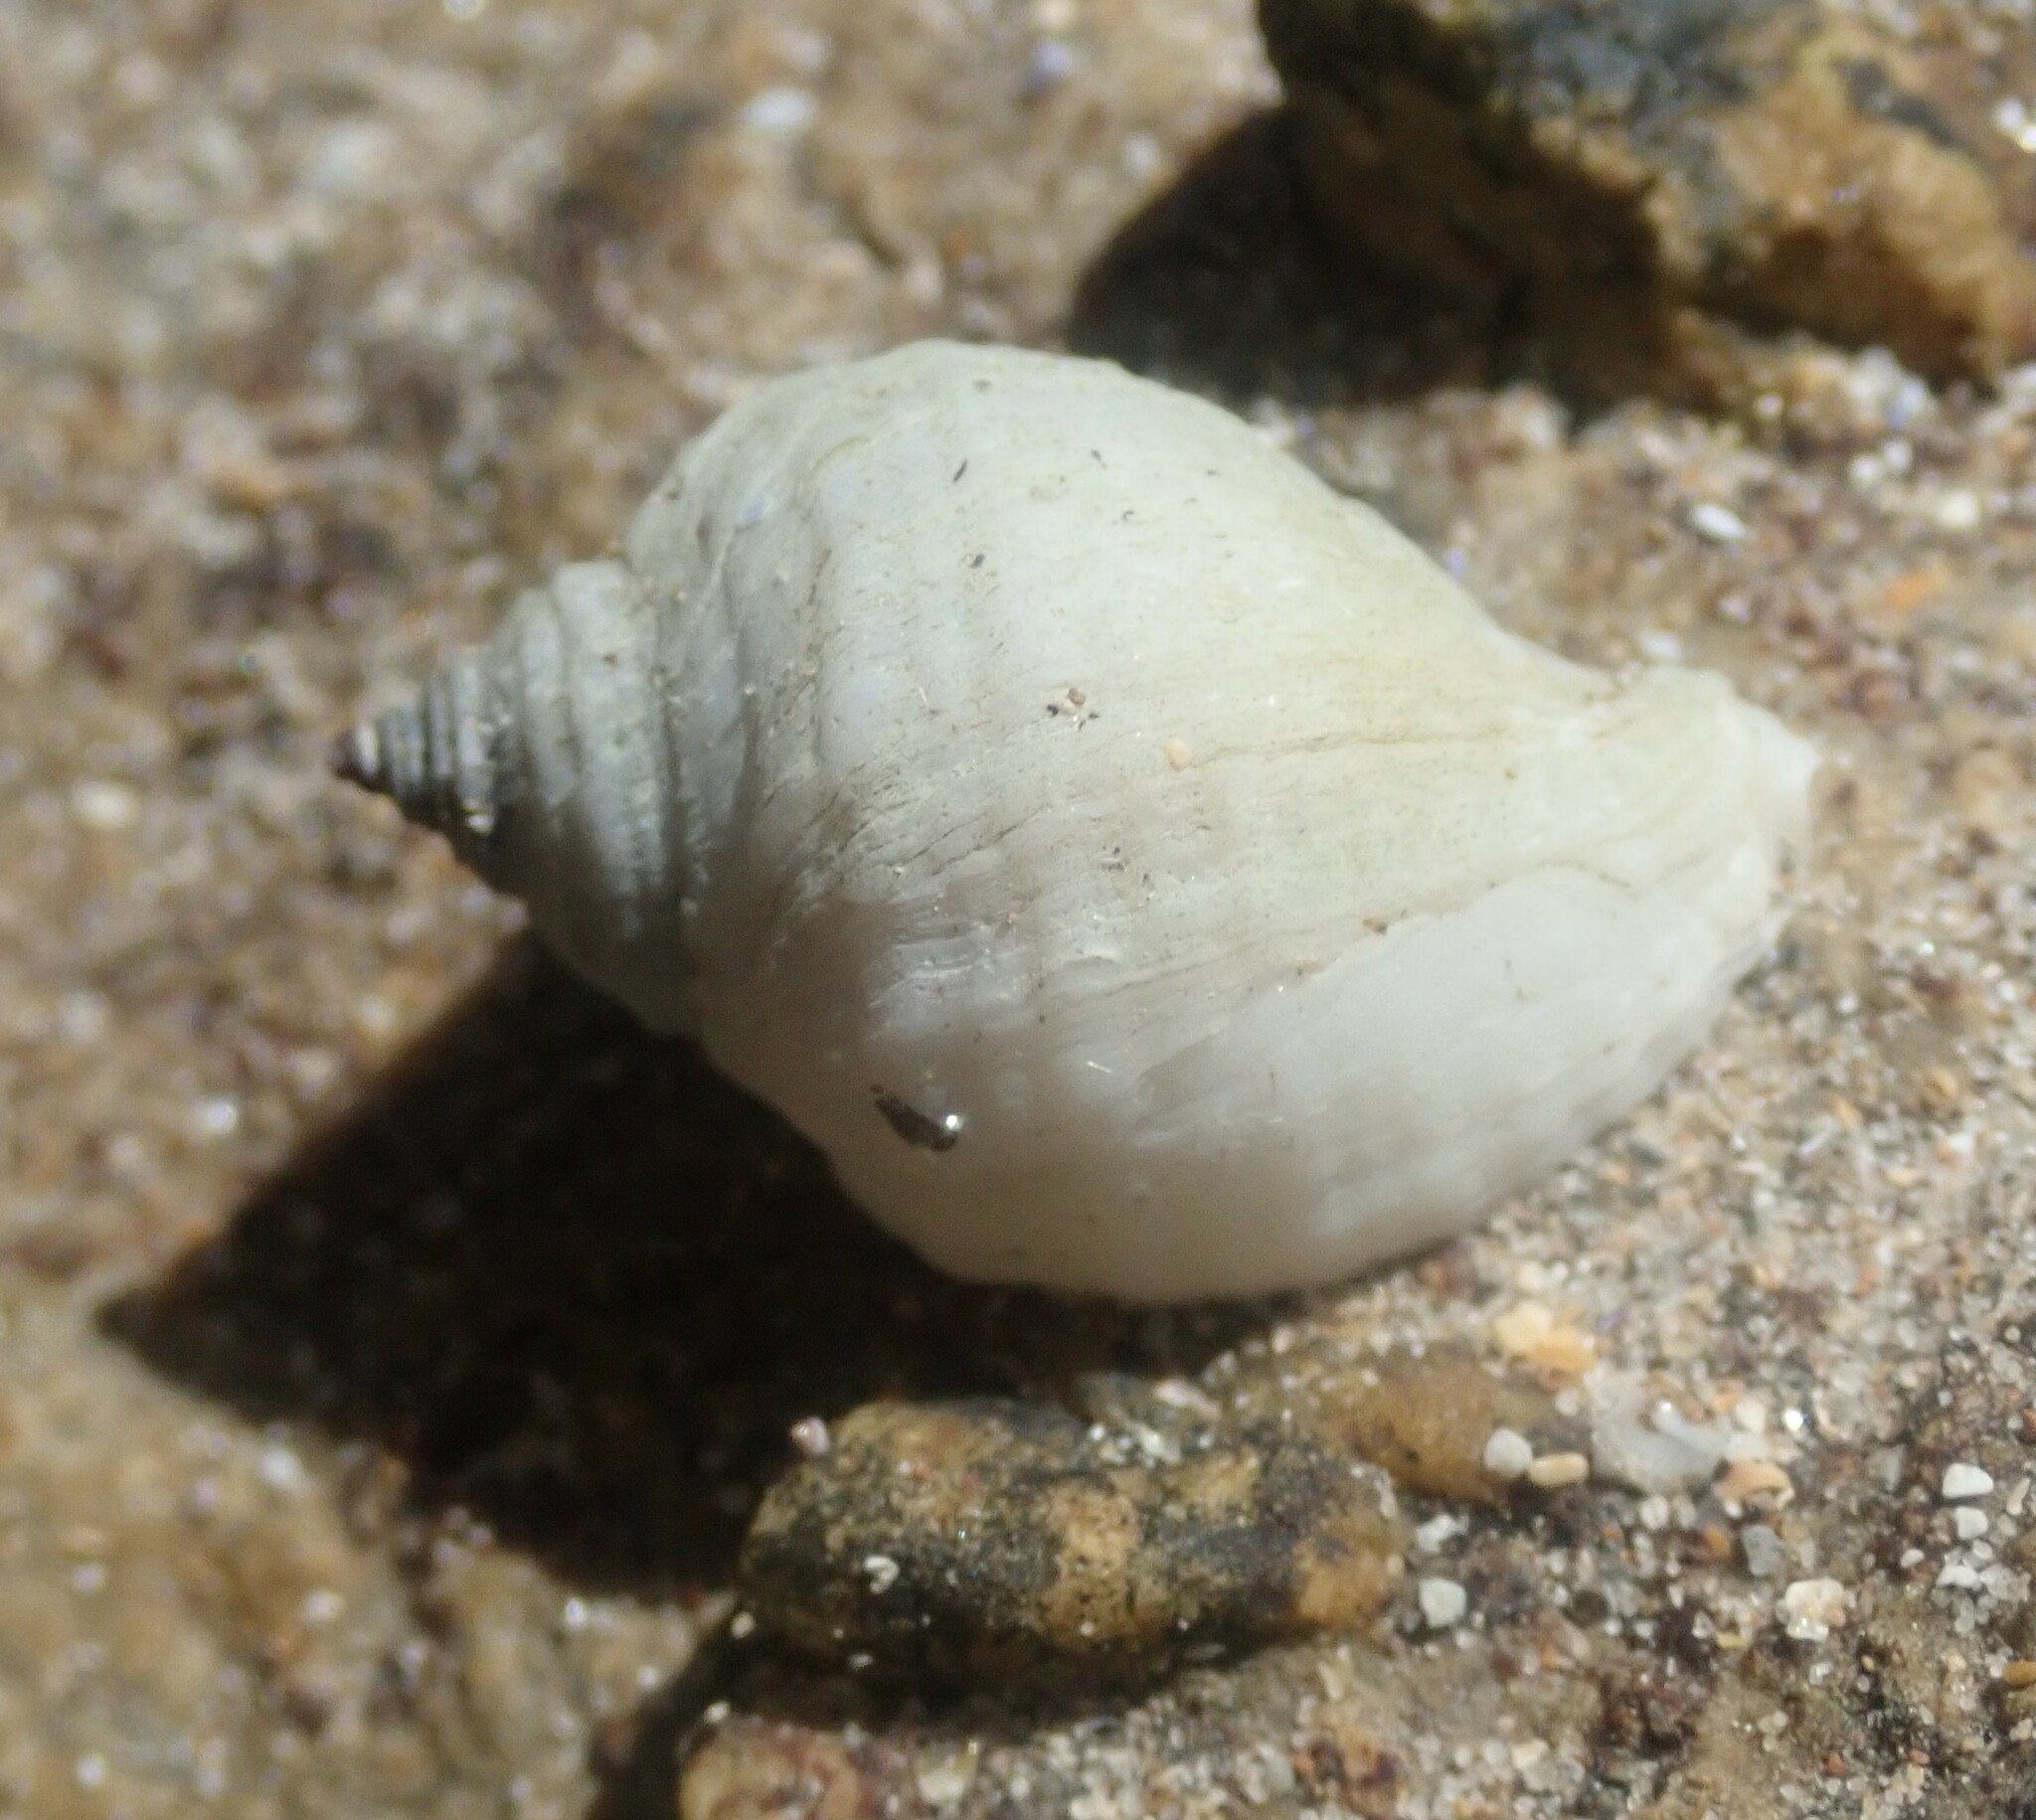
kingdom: Animalia
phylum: Mollusca
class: Gastropoda
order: Neogastropoda
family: Muricidae
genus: Nucella
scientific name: Nucella lapillus
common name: Dog whelk
